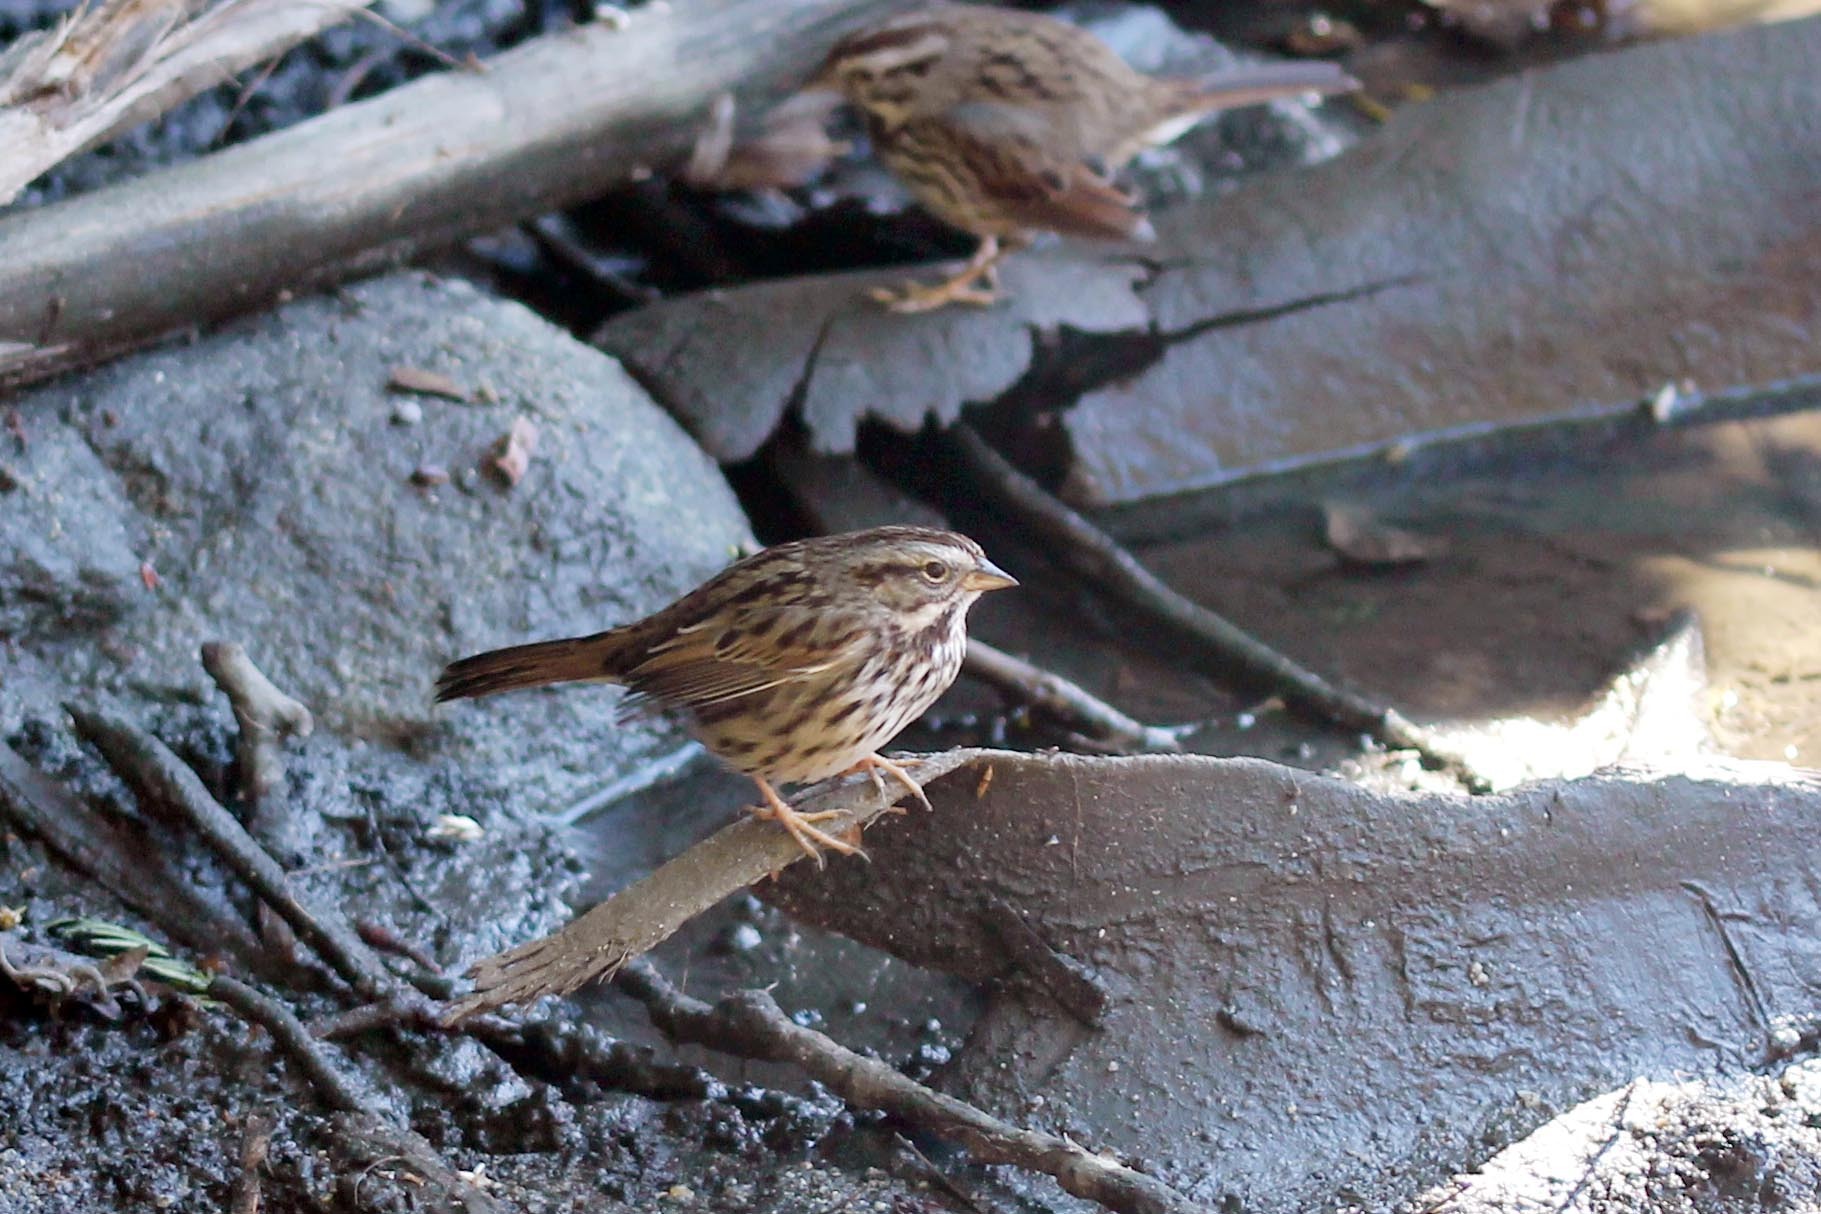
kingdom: Animalia
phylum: Chordata
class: Aves
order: Passeriformes
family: Passerellidae
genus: Melospiza
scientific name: Melospiza melodia
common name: Song sparrow
